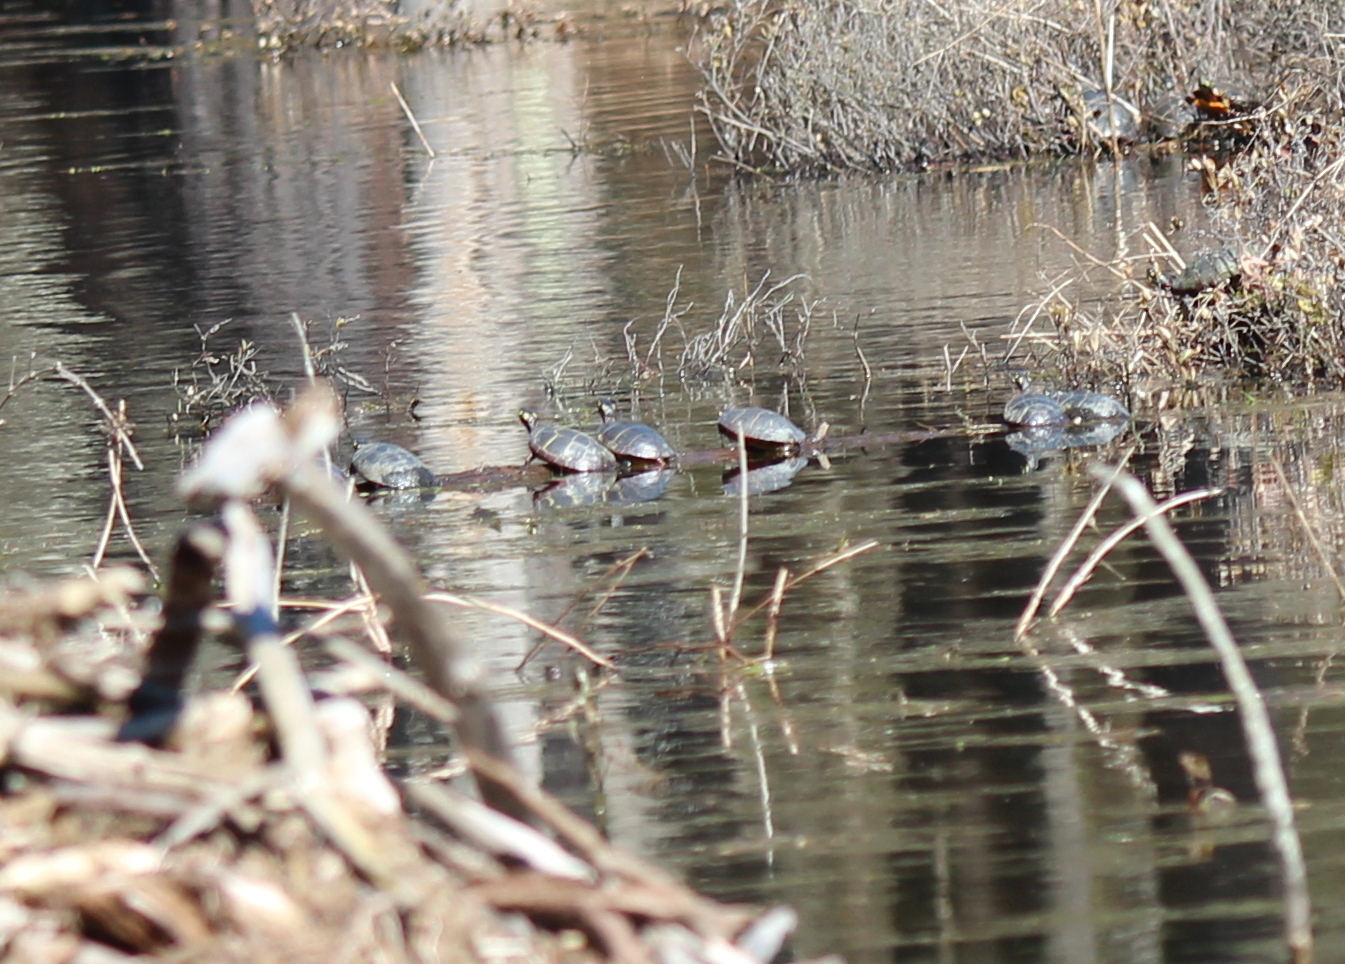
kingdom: Animalia
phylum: Chordata
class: Testudines
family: Emydidae
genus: Chrysemys
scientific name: Chrysemys picta
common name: Painted turtle
